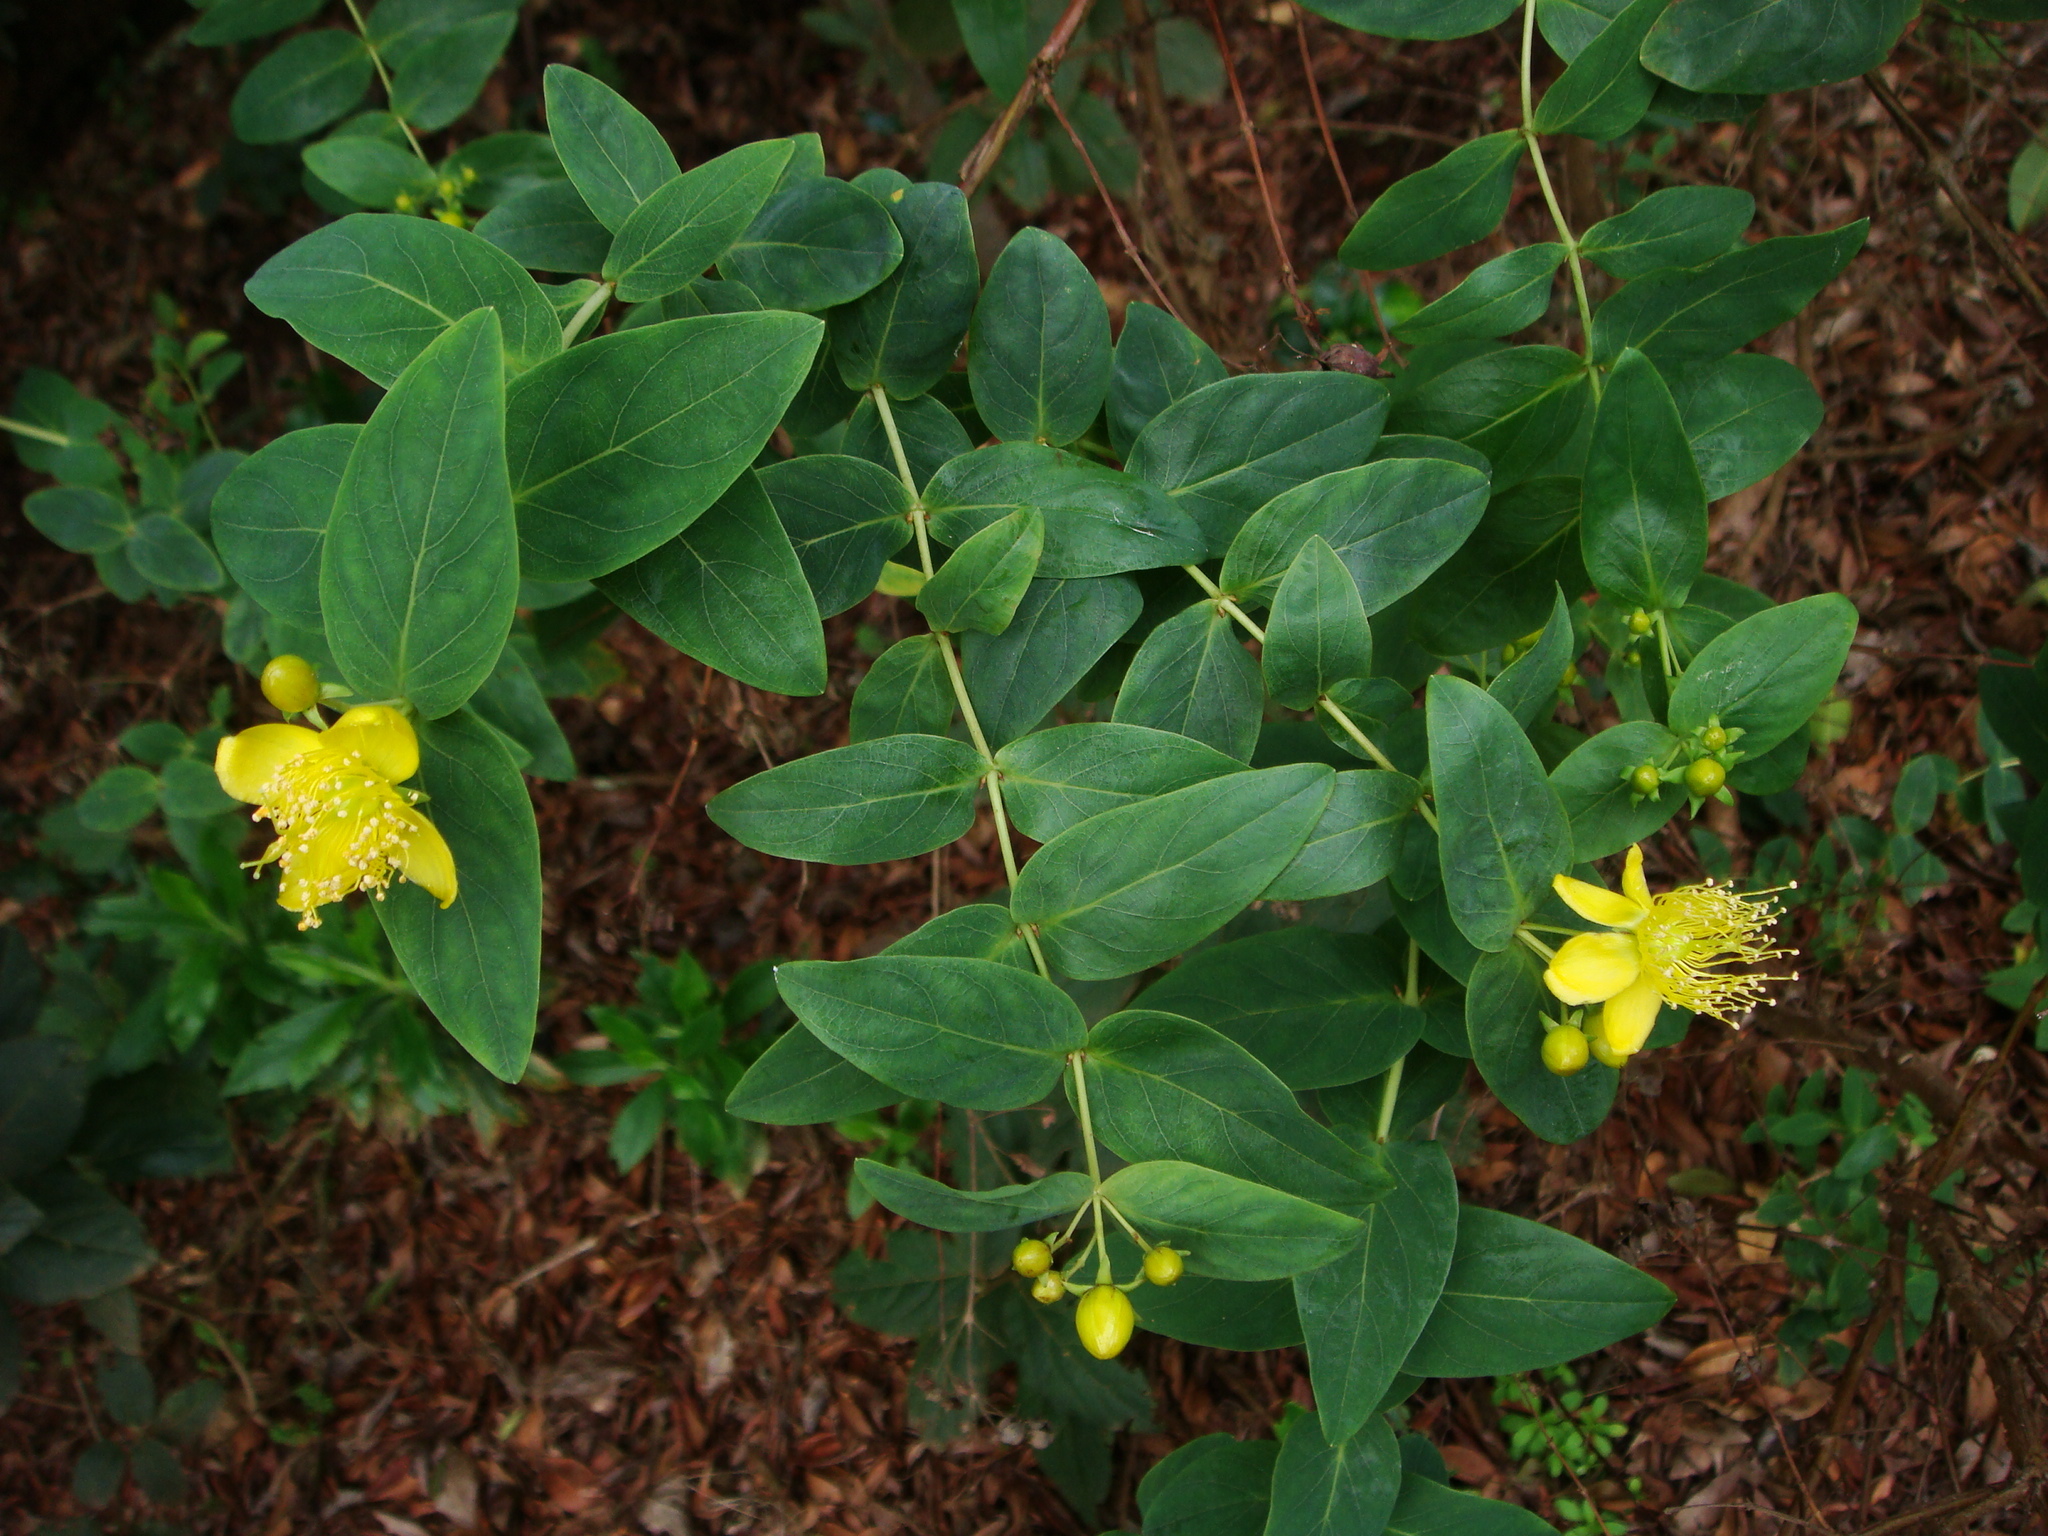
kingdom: Plantae
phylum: Tracheophyta
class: Magnoliopsida
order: Malpighiales
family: Hypericaceae
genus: Hypericum
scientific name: Hypericum grandifolium
